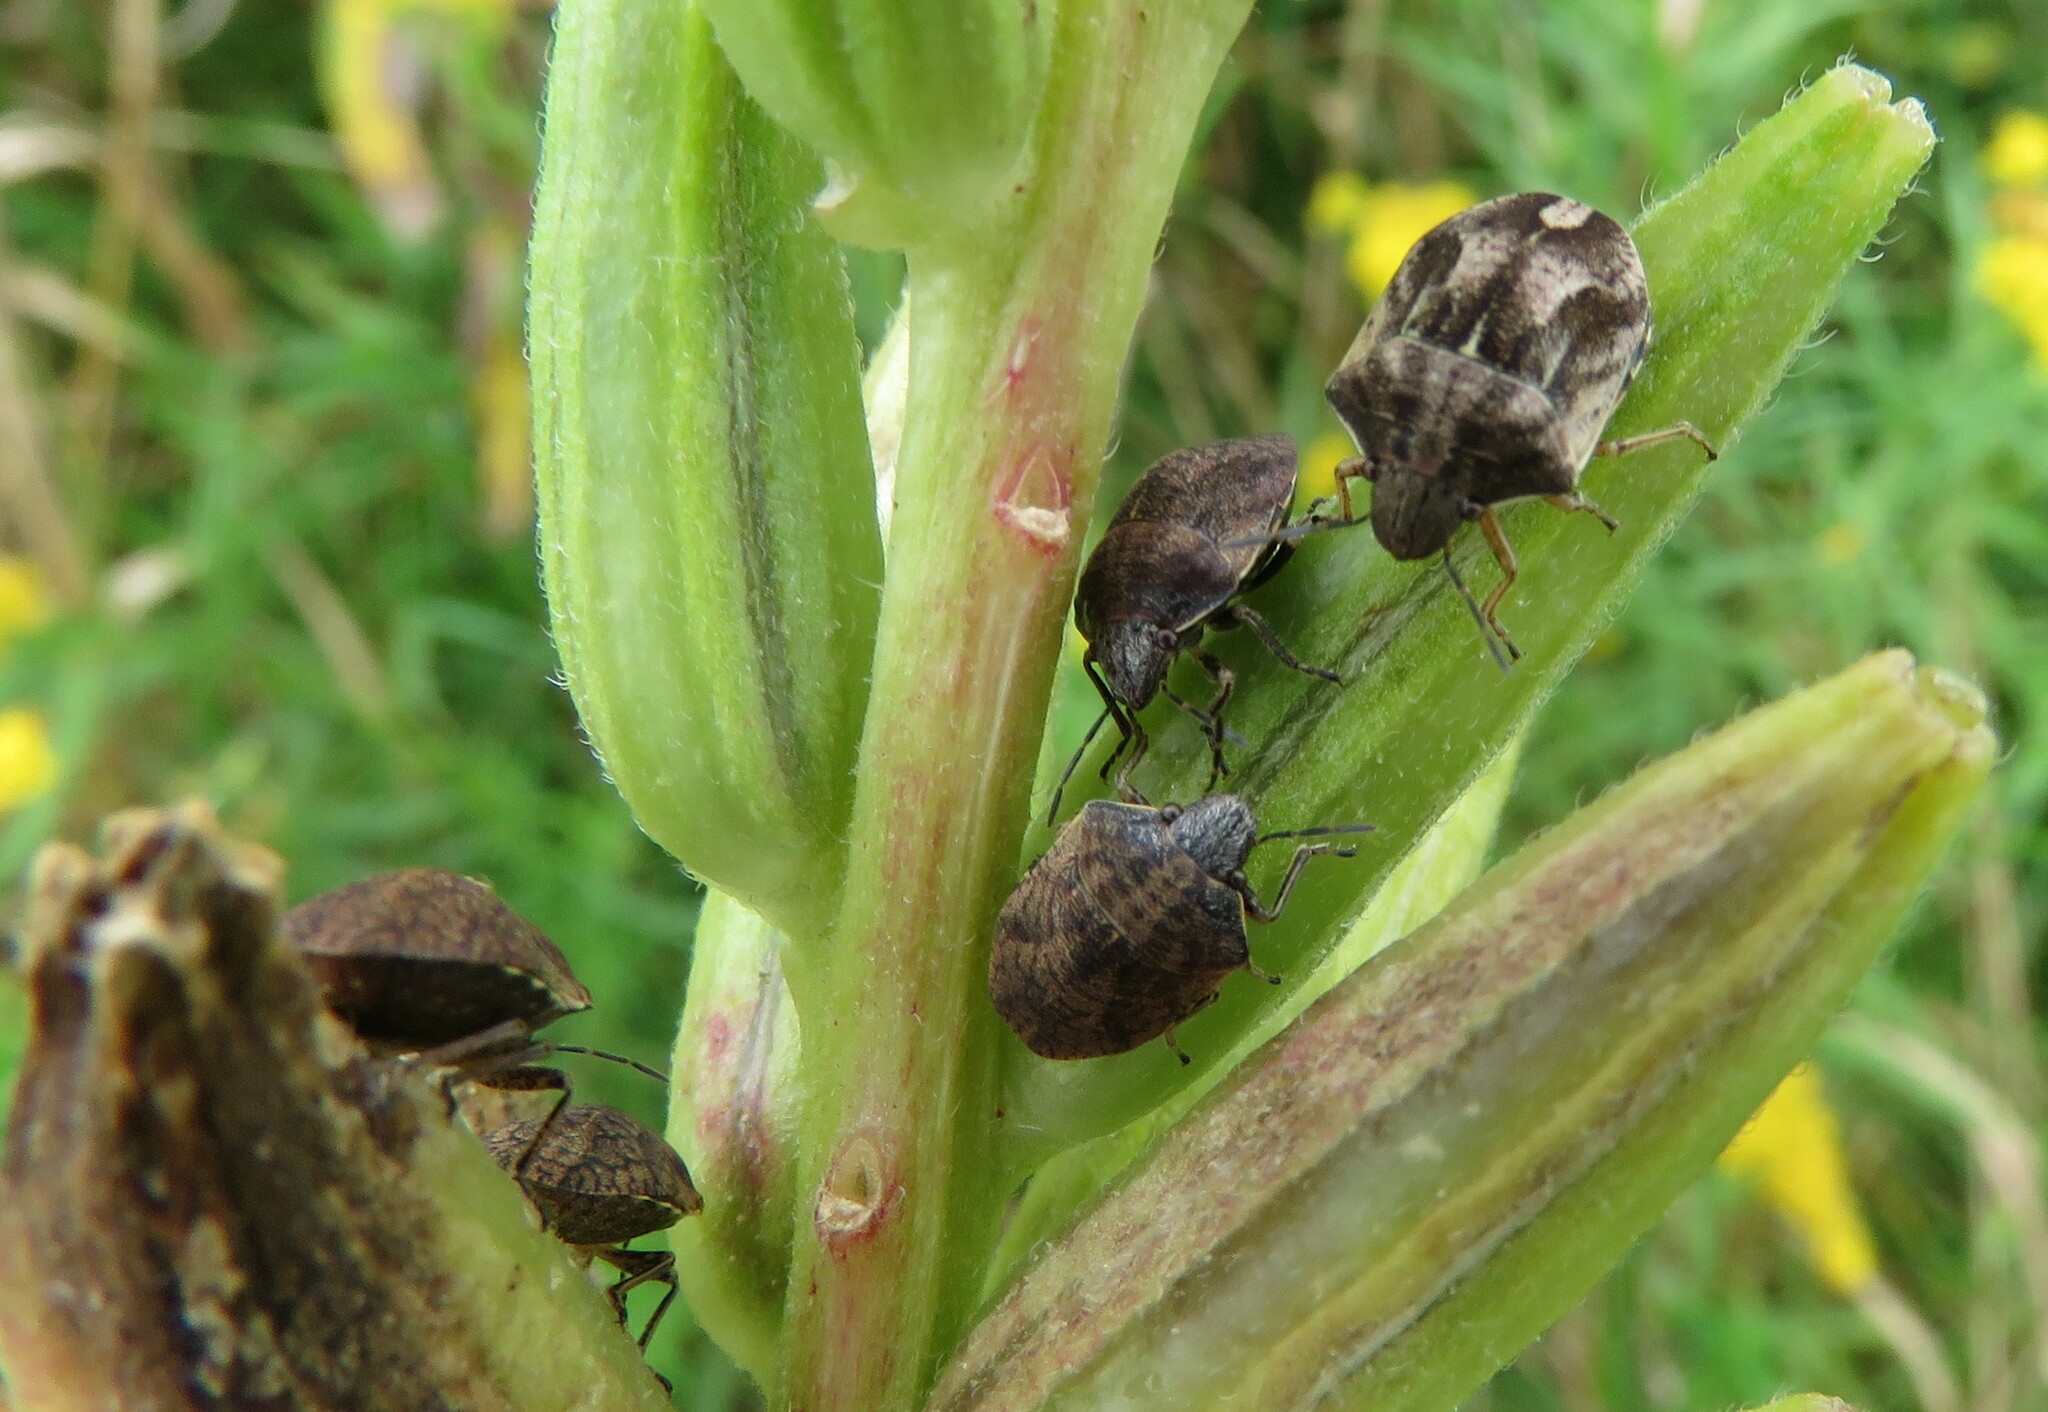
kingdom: Animalia
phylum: Arthropoda
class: Insecta
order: Hemiptera
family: Scutelleridae
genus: Homaemus
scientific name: Homaemus aeneifrons
